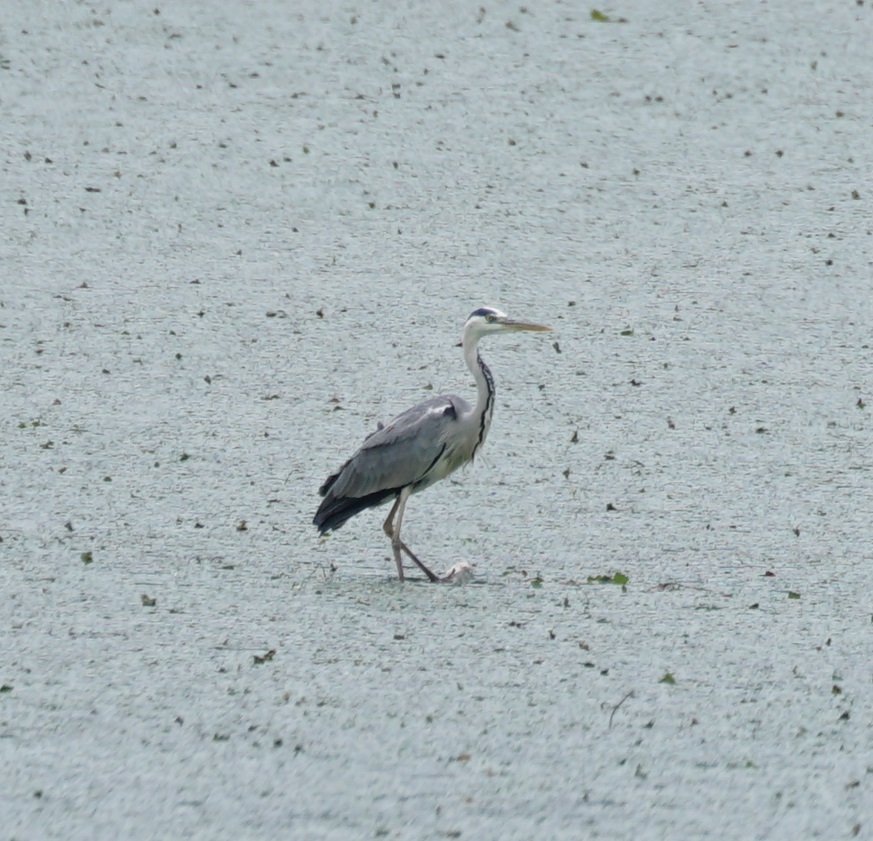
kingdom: Animalia
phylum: Chordata
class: Aves
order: Pelecaniformes
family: Ardeidae
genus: Ardea
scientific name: Ardea cinerea
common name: Grey heron
